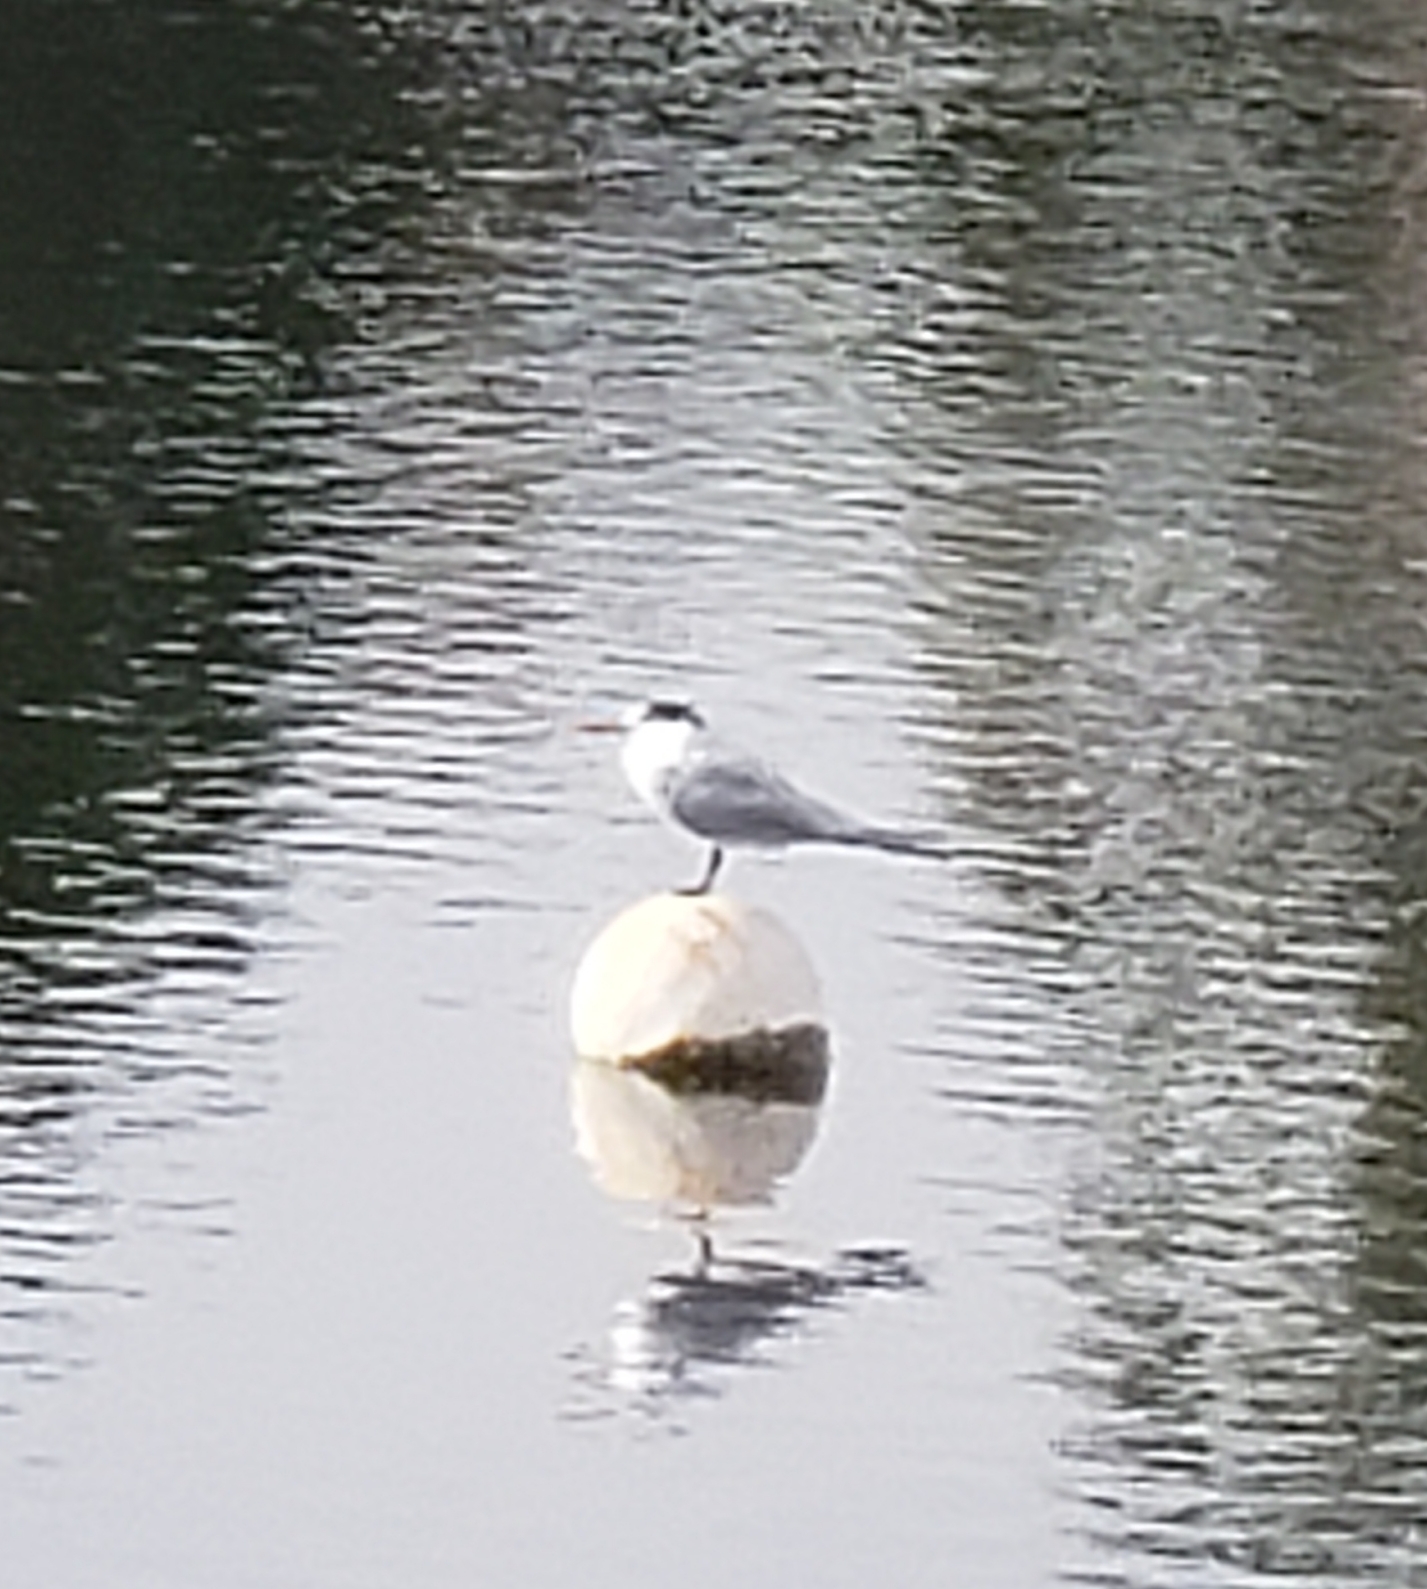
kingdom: Animalia
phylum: Chordata
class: Aves
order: Charadriiformes
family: Laridae
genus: Thalasseus
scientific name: Thalasseus maximus
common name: Royal tern
